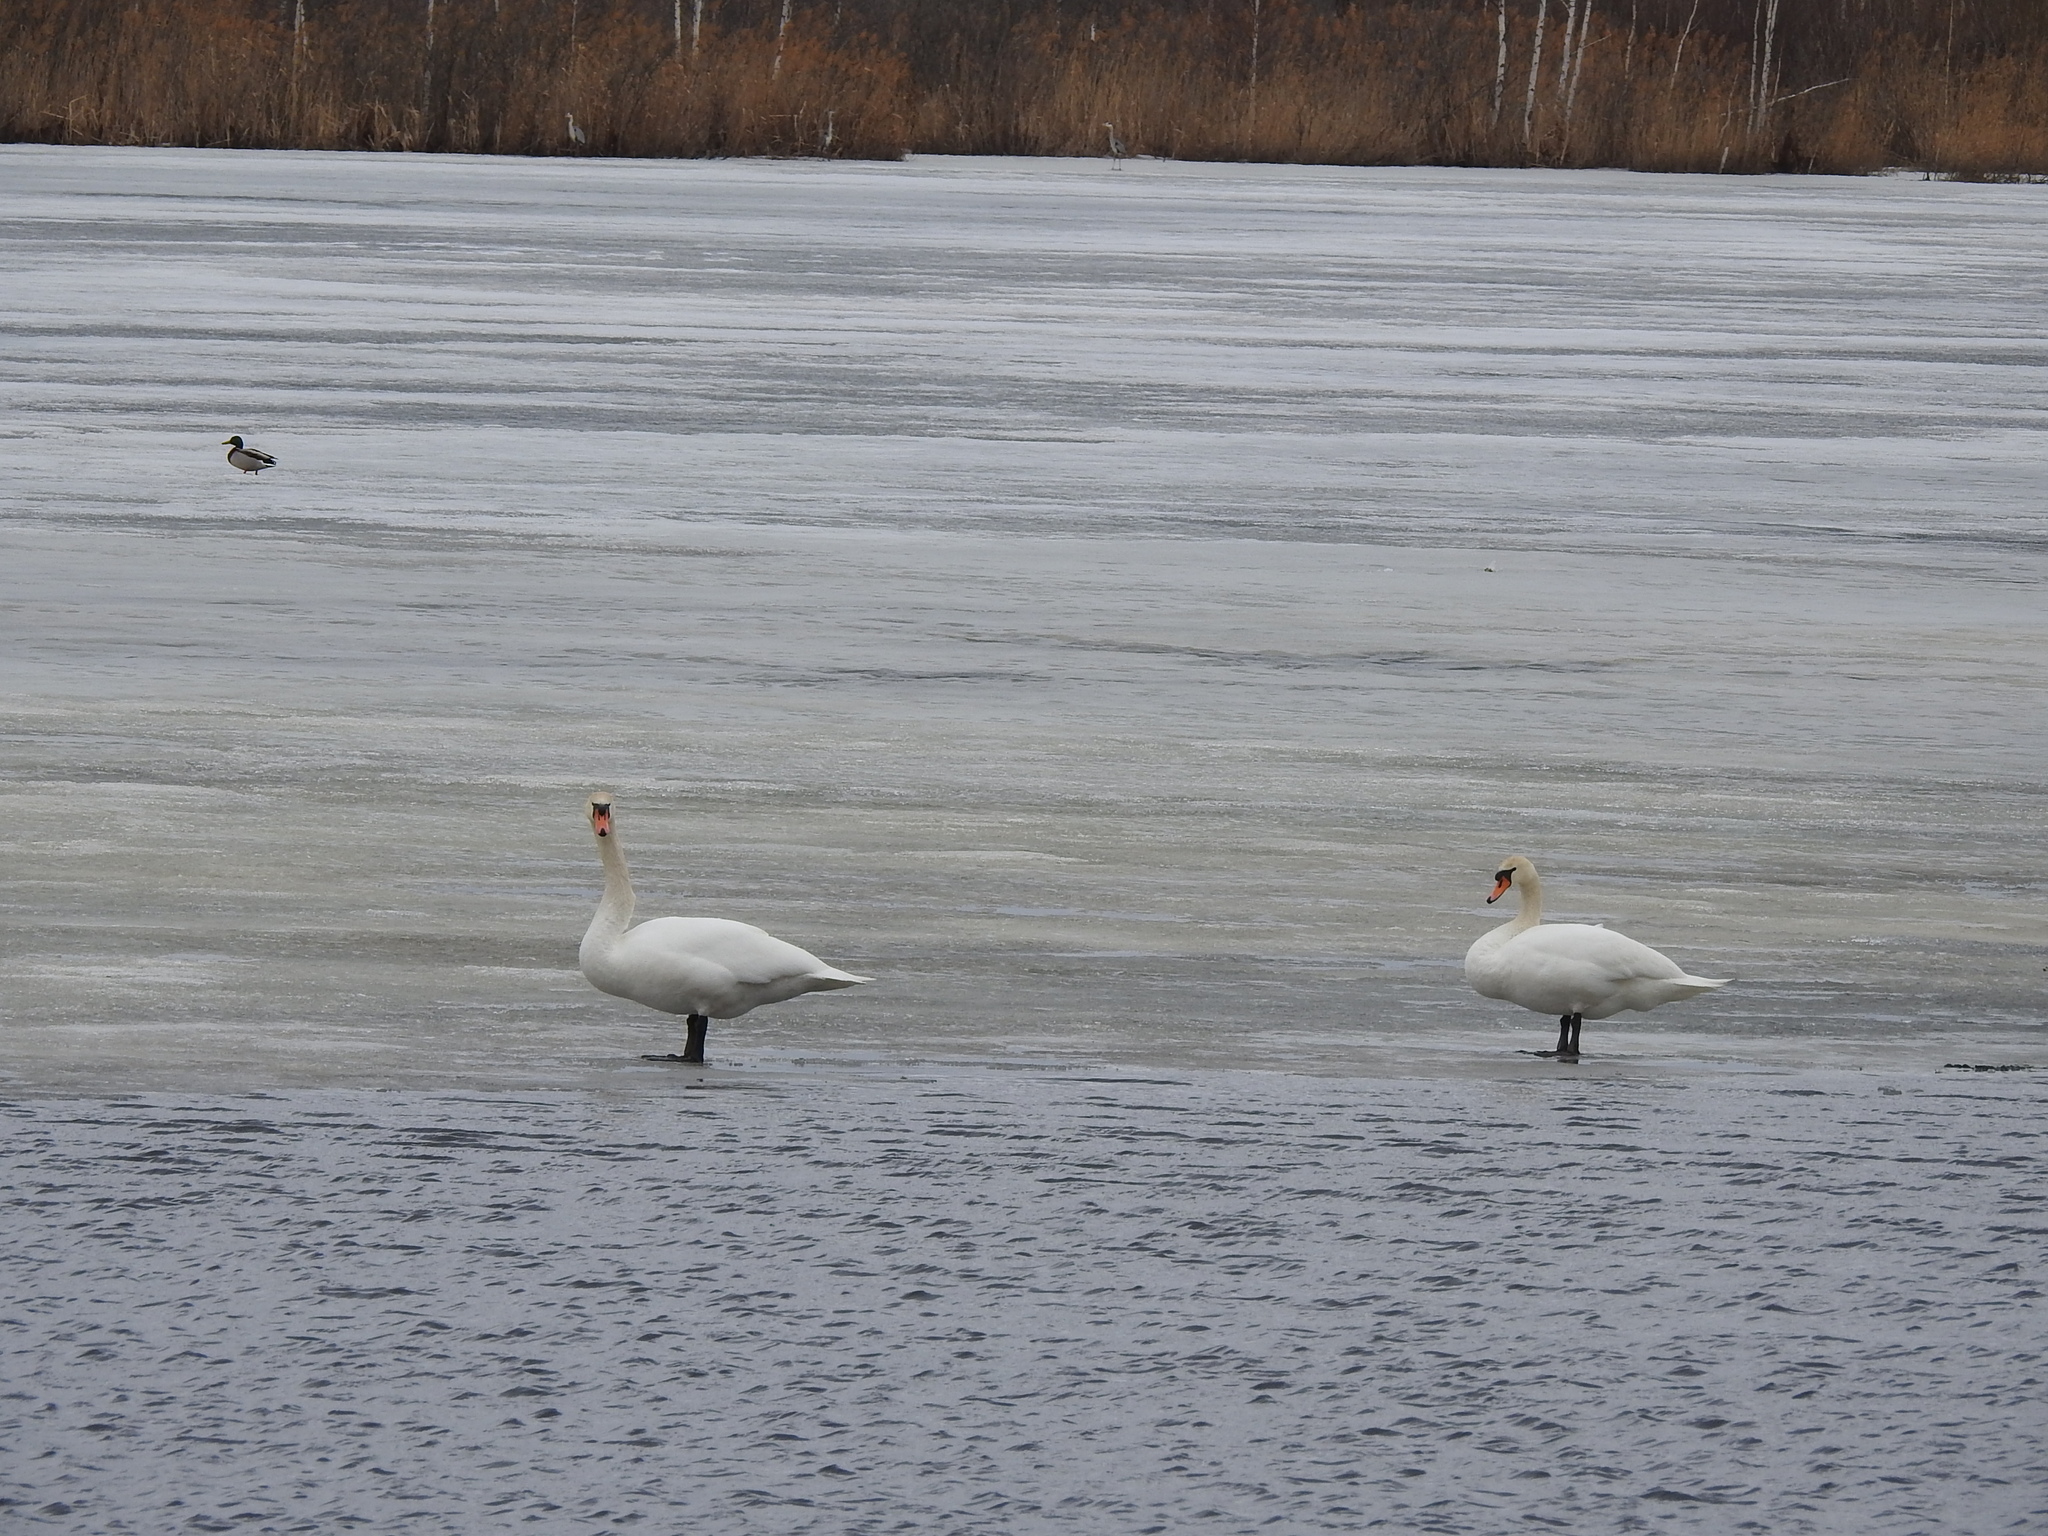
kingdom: Animalia
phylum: Chordata
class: Aves
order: Anseriformes
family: Anatidae
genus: Cygnus
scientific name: Cygnus olor
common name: Mute swan
